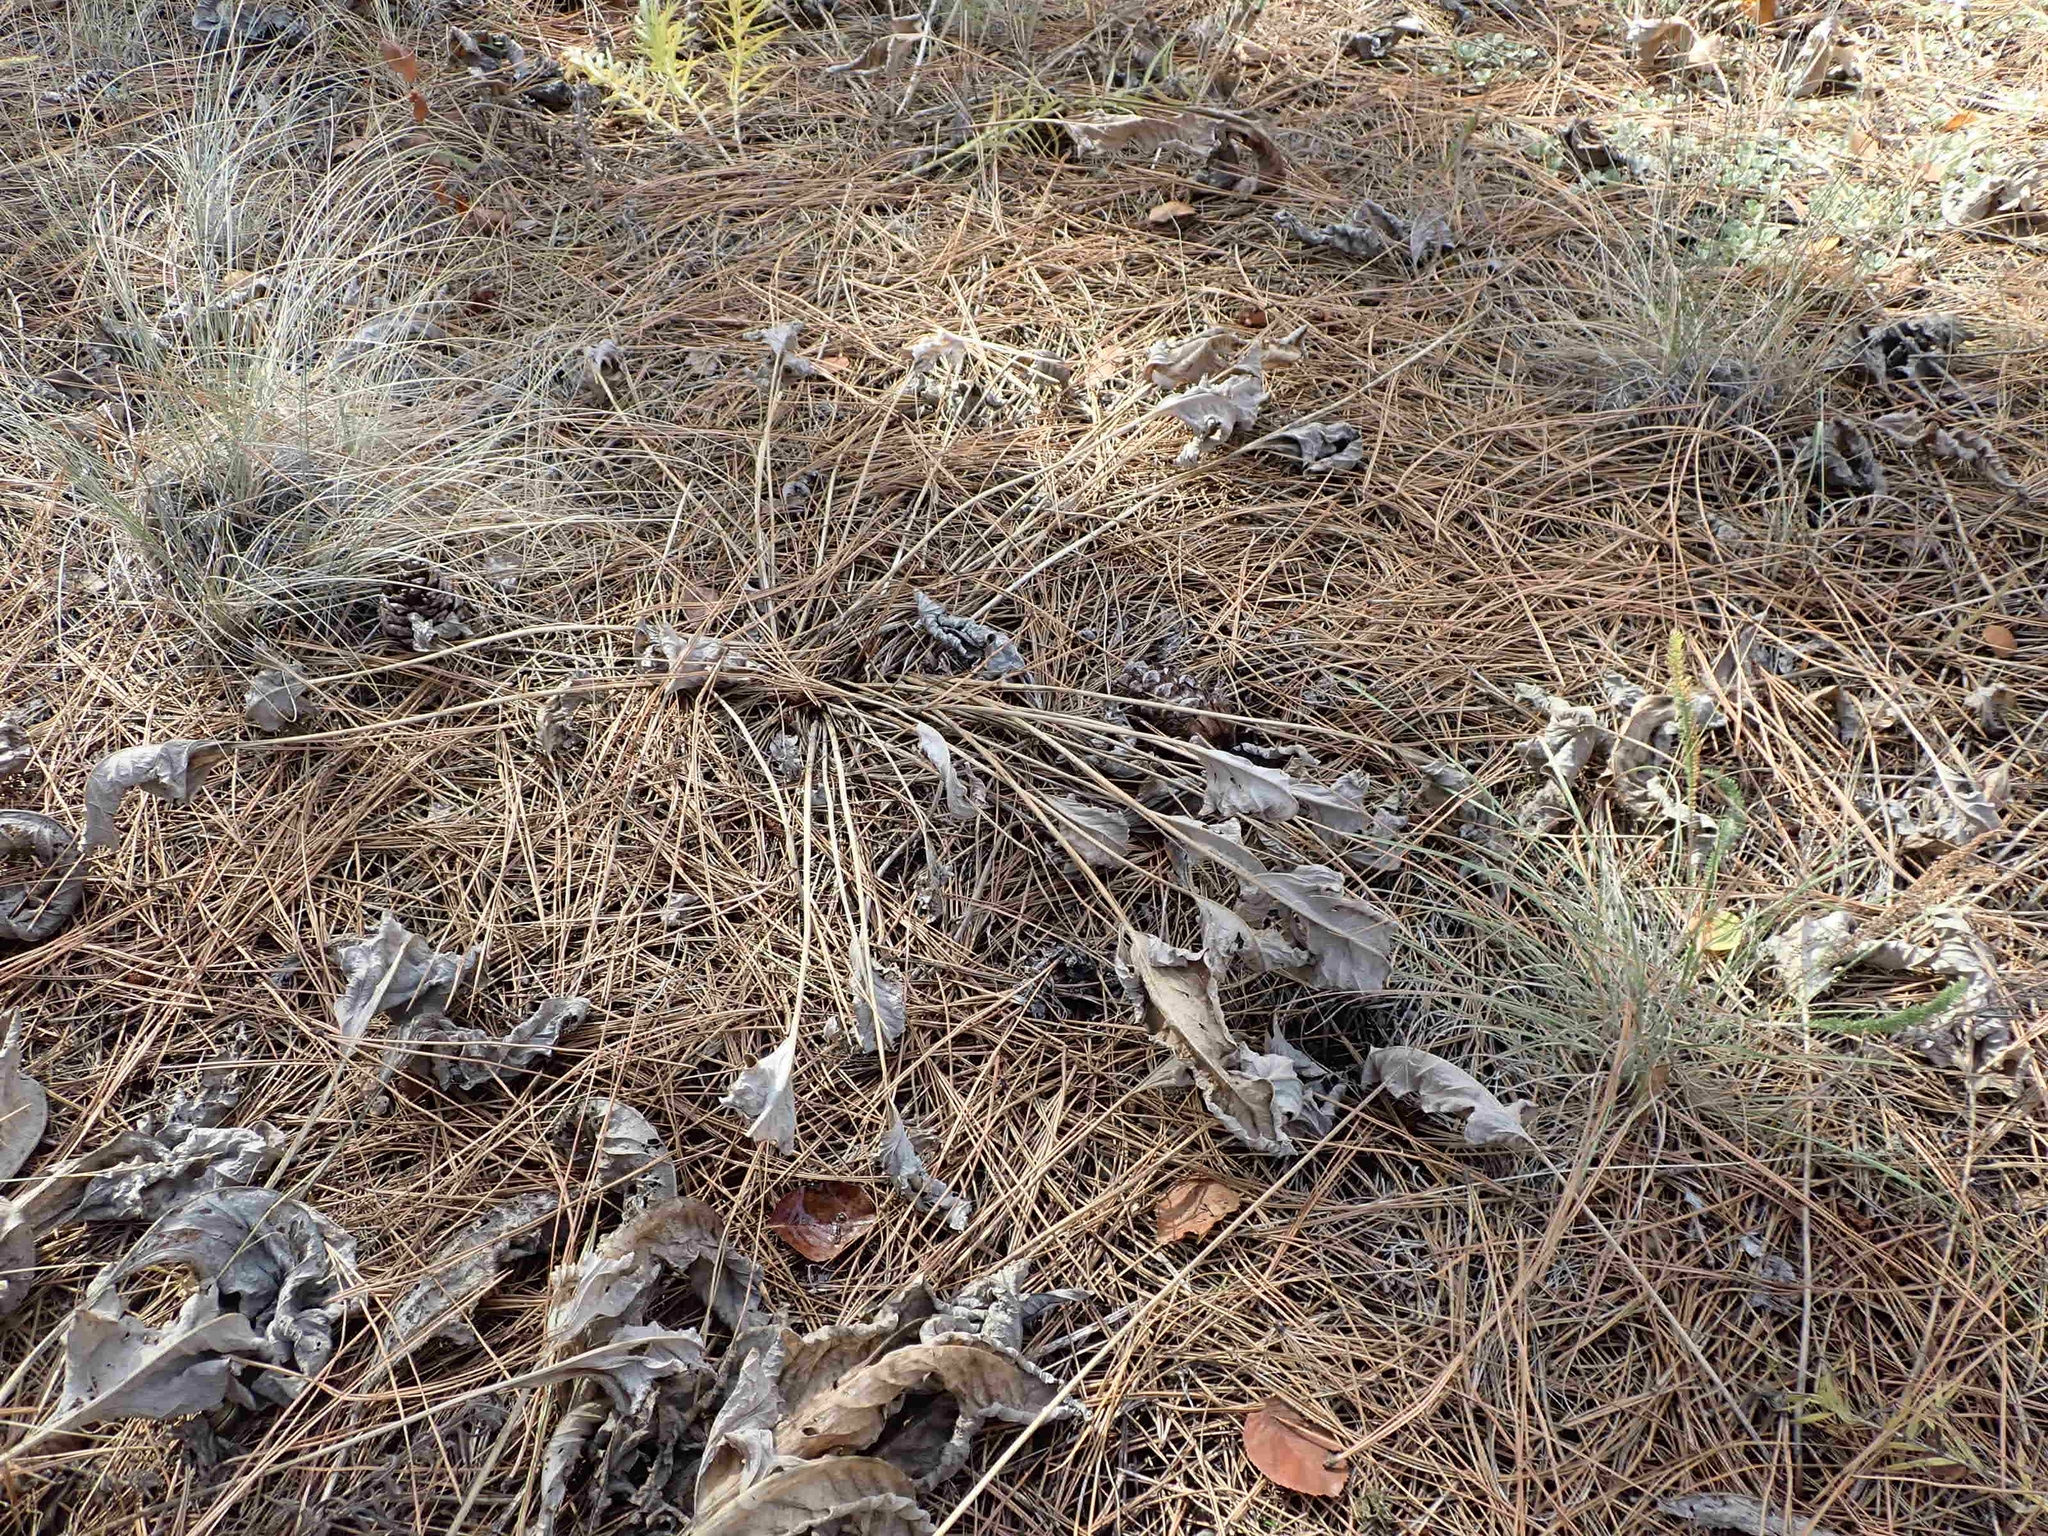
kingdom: Plantae
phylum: Tracheophyta
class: Magnoliopsida
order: Asterales
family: Asteraceae
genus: Wyethia
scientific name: Wyethia sagittata
